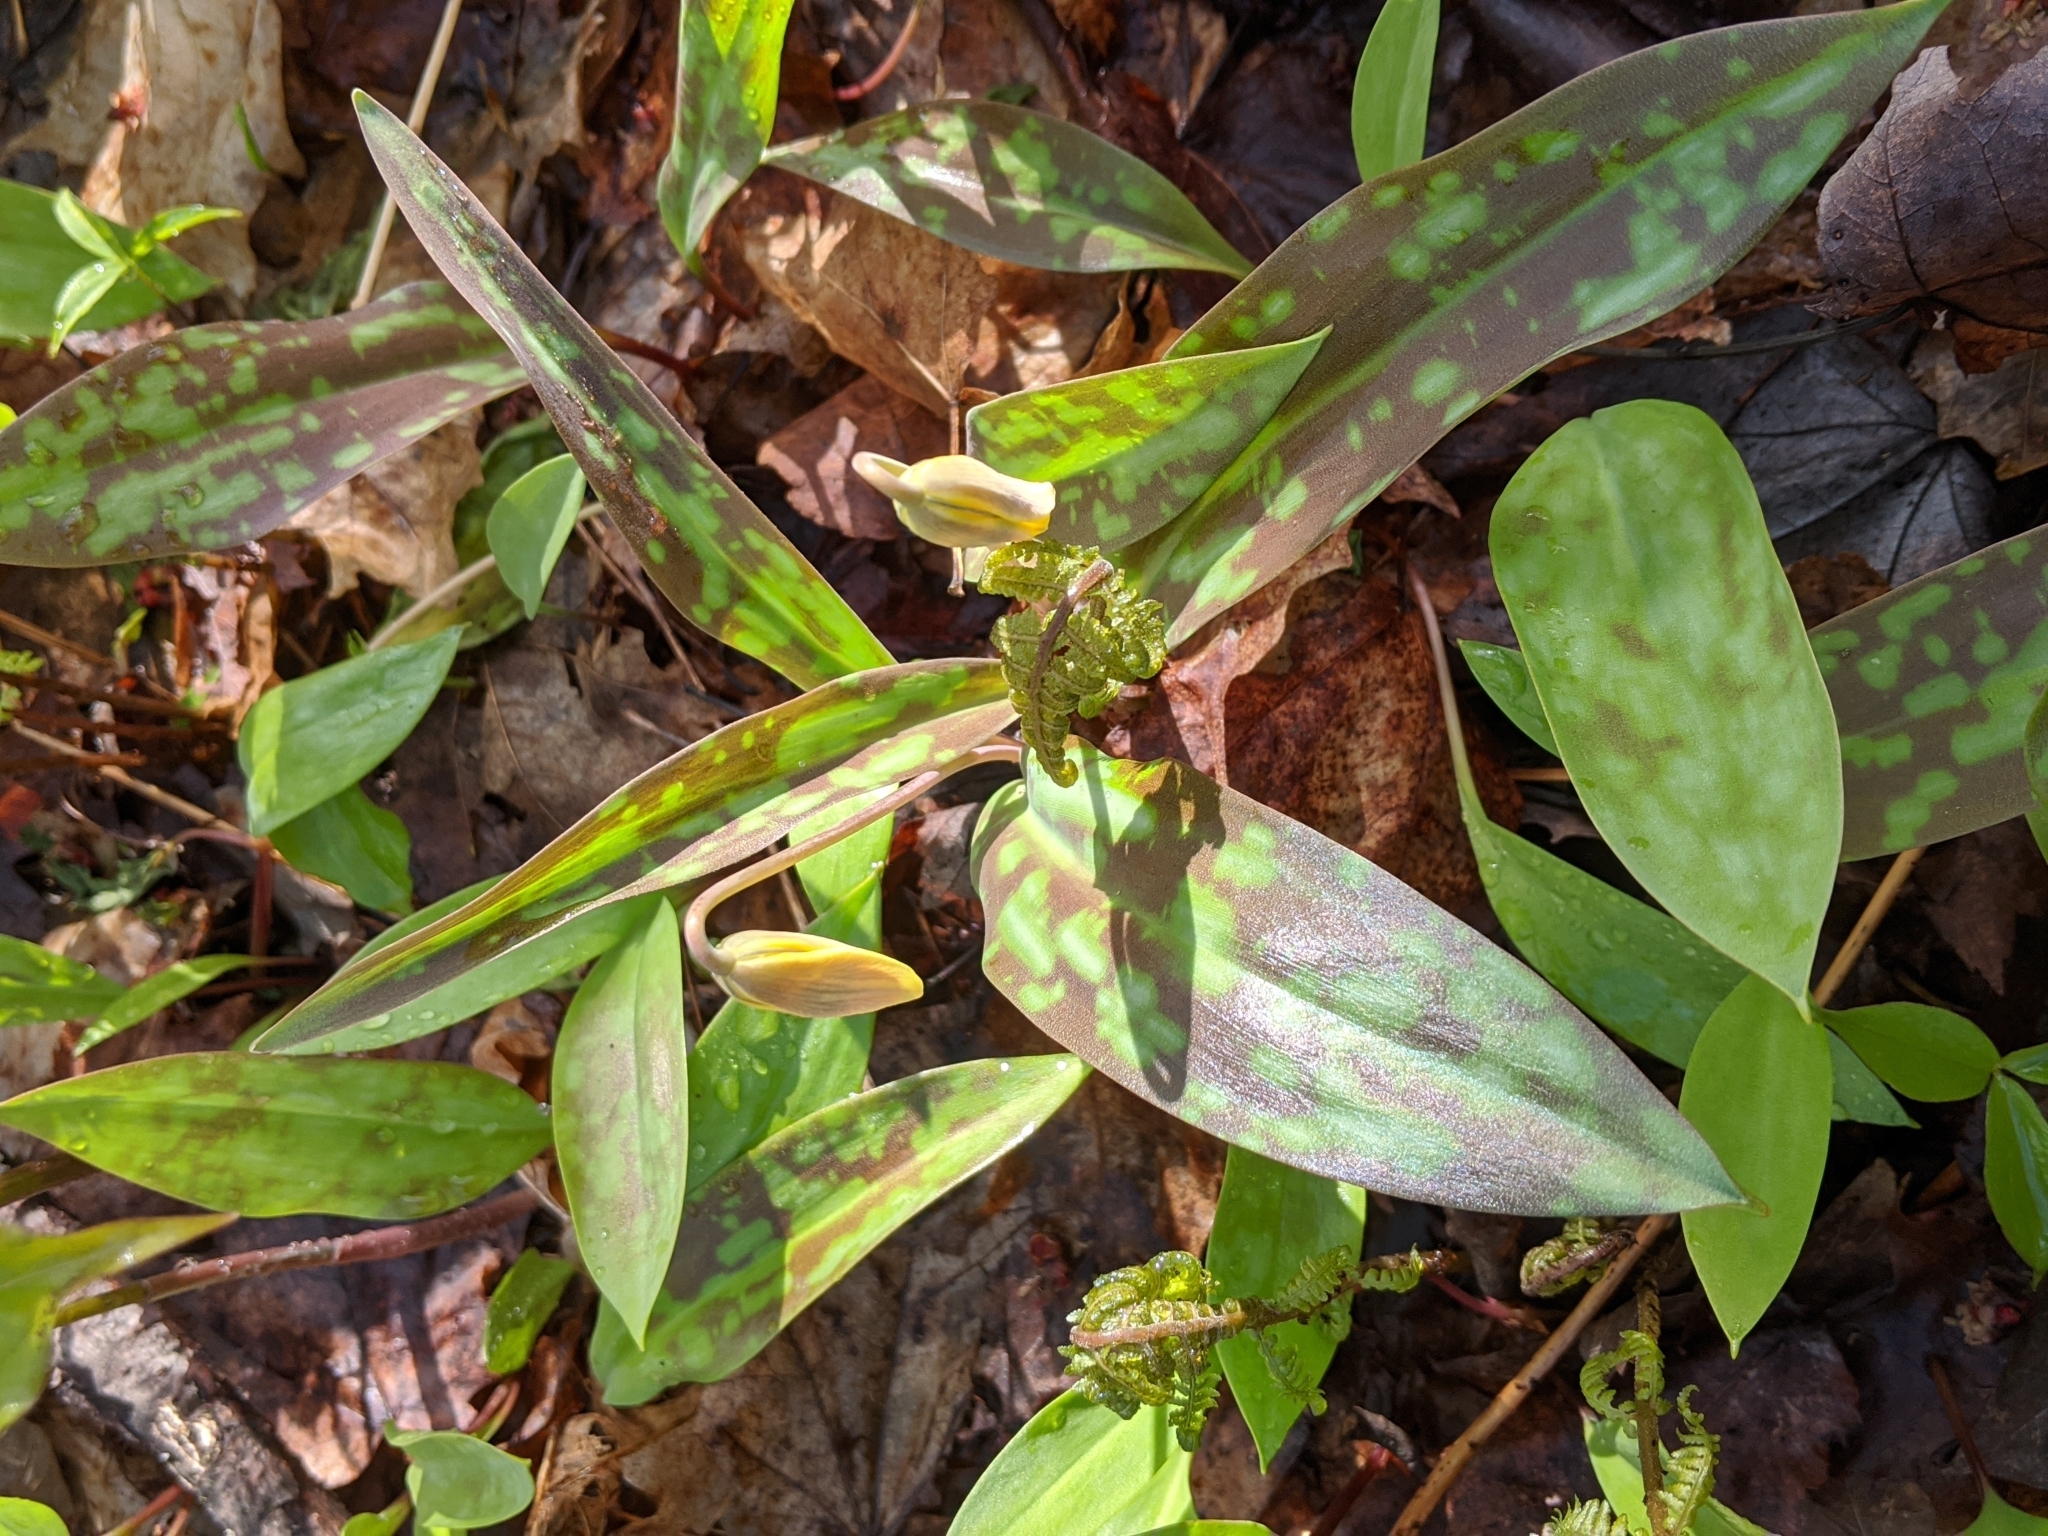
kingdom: Plantae
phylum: Tracheophyta
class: Liliopsida
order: Liliales
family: Liliaceae
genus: Erythronium
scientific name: Erythronium americanum
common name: Yellow adder's-tongue
